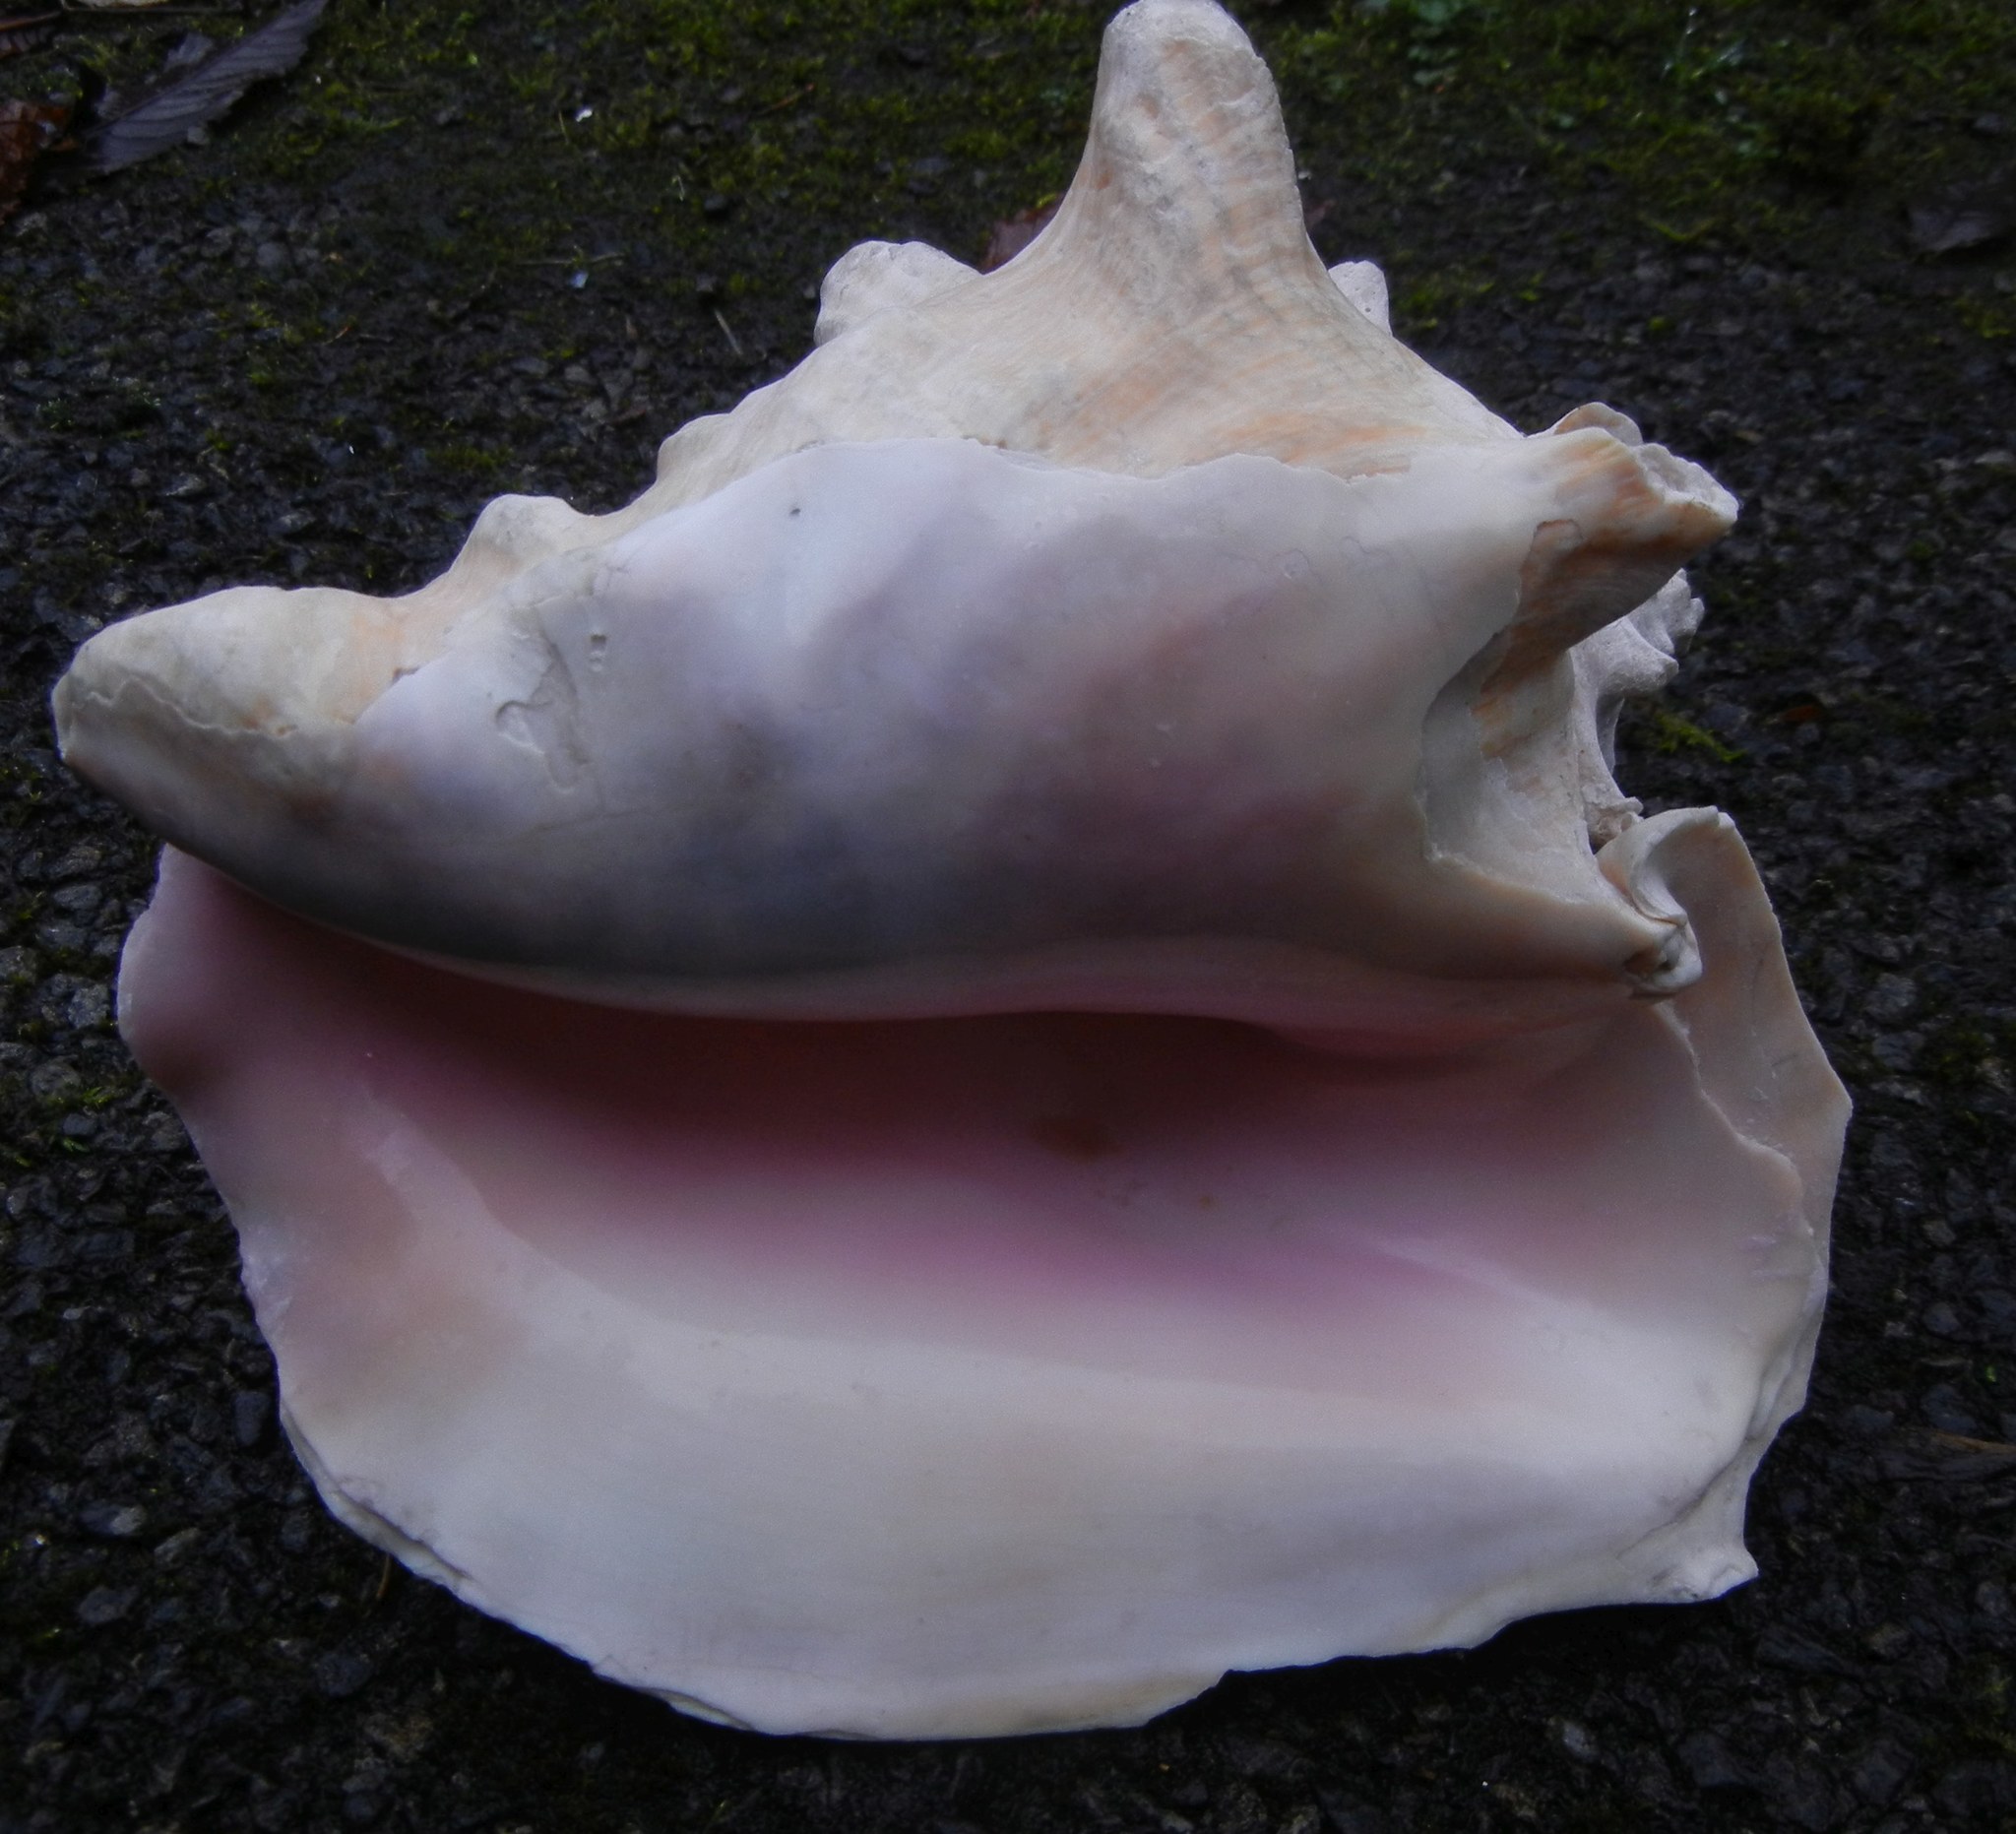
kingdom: Animalia
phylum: Mollusca
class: Gastropoda
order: Littorinimorpha
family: Strombidae
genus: Aliger
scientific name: Aliger gigas
